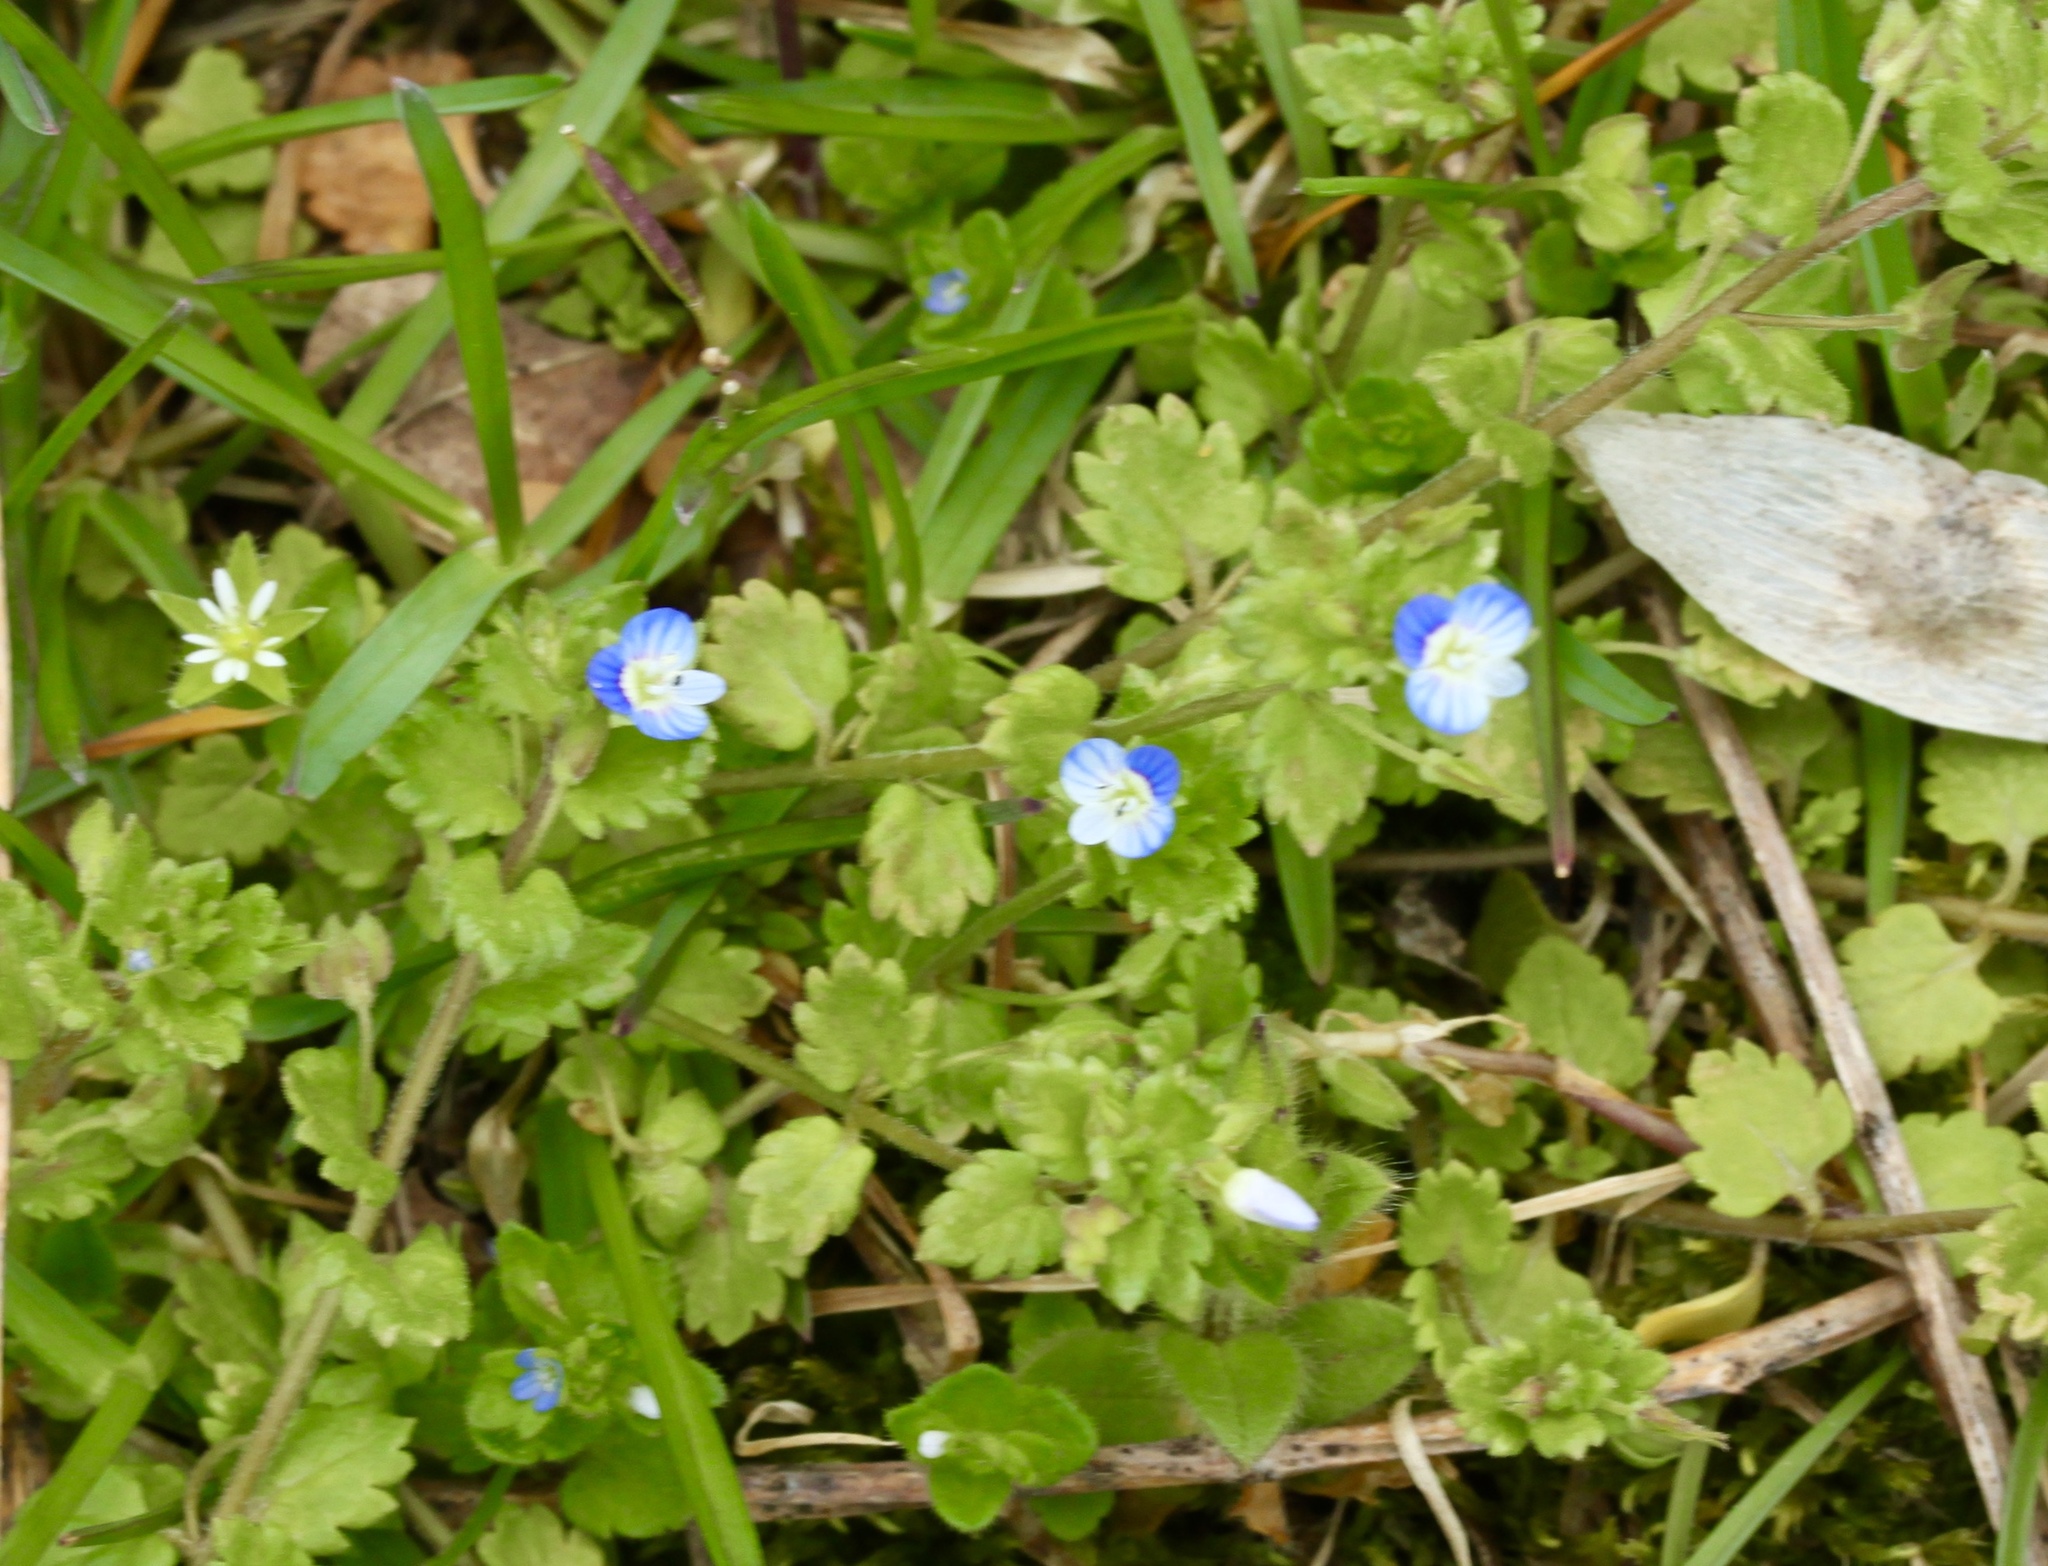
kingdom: Plantae
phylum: Tracheophyta
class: Magnoliopsida
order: Lamiales
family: Plantaginaceae
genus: Veronica
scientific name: Veronica polita
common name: Grey field-speedwell
